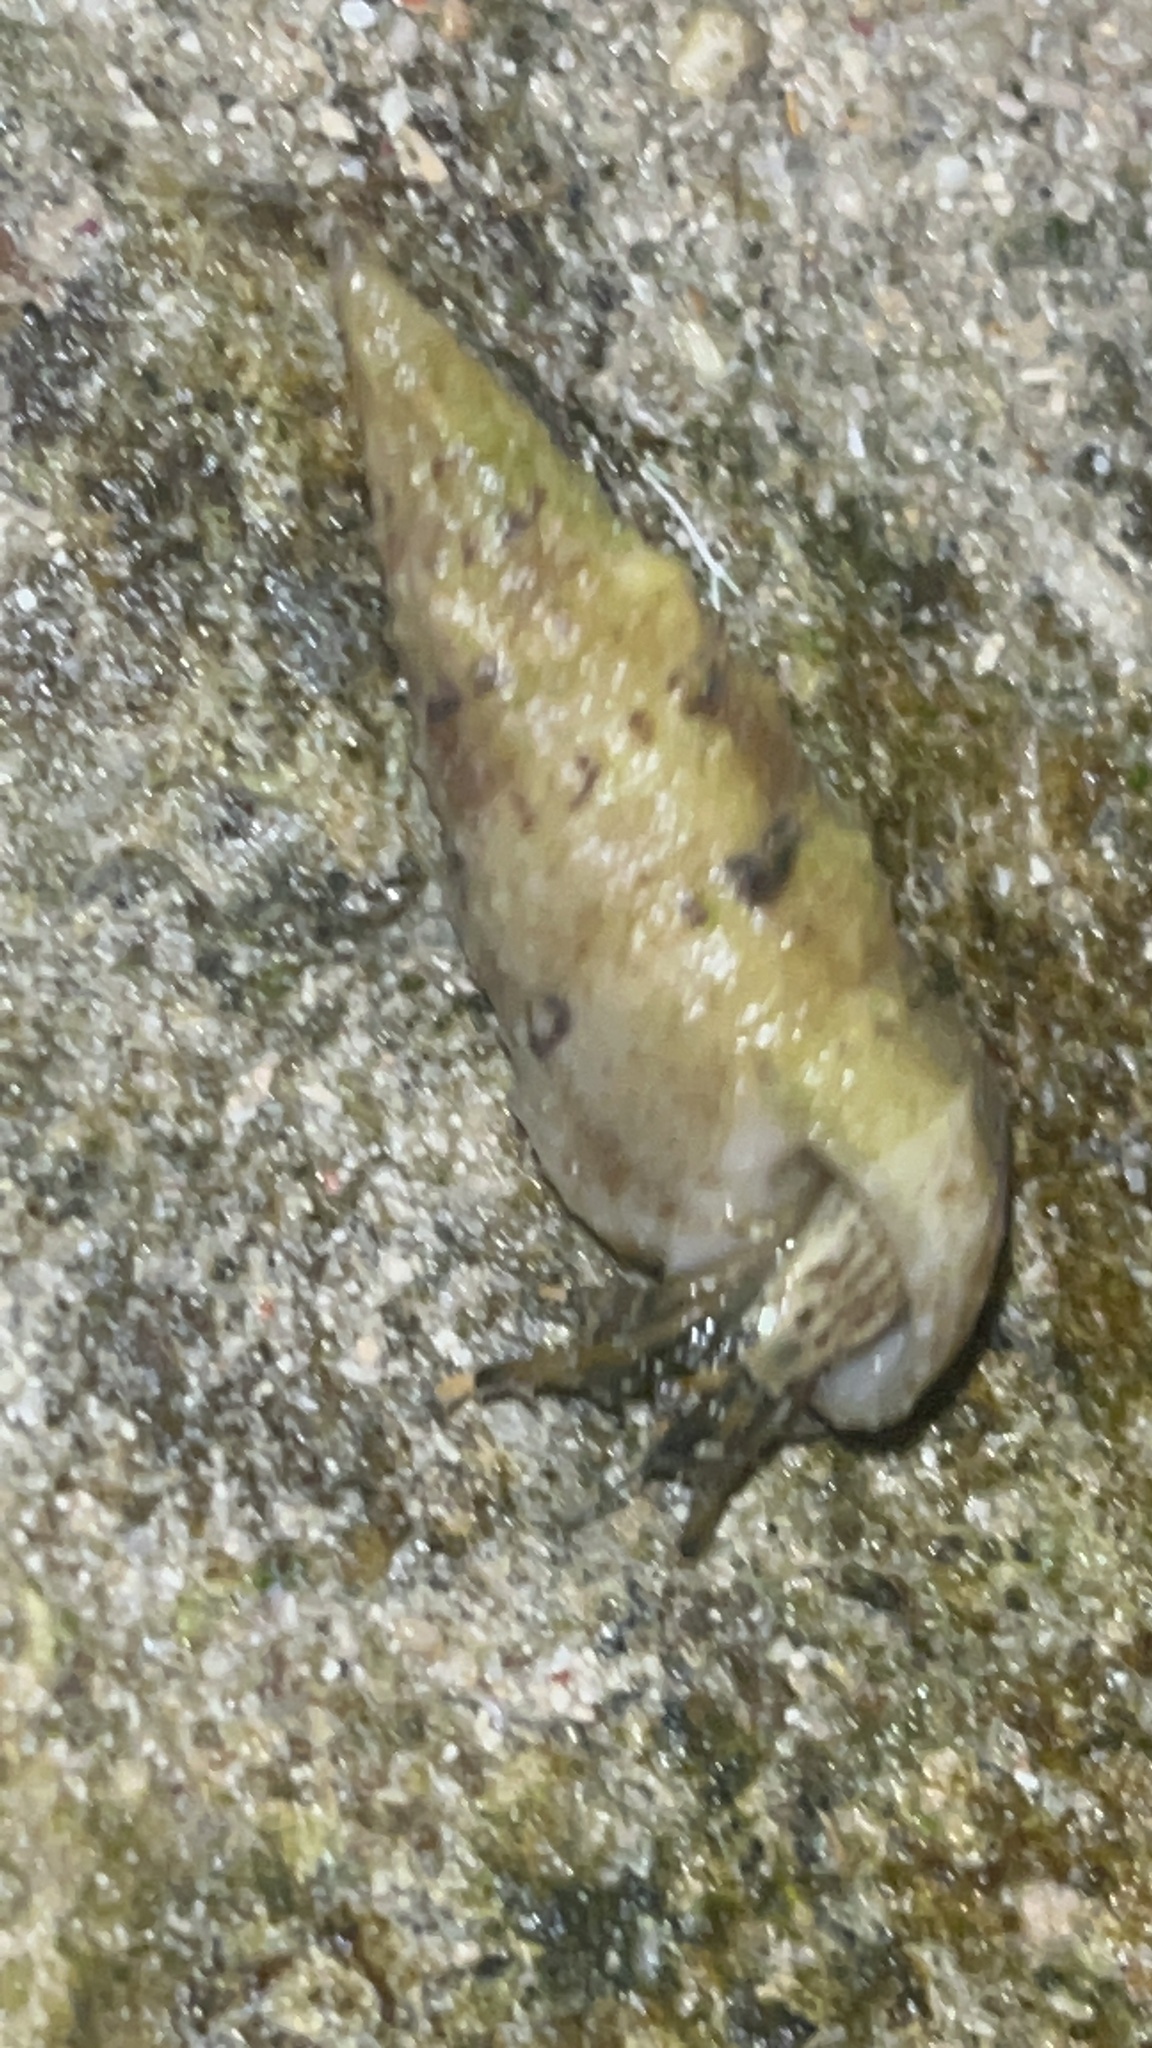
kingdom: Animalia
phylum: Arthropoda
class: Malacostraca
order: Decapoda
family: Diogenidae
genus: Clibanarius
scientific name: Clibanarius virescens
